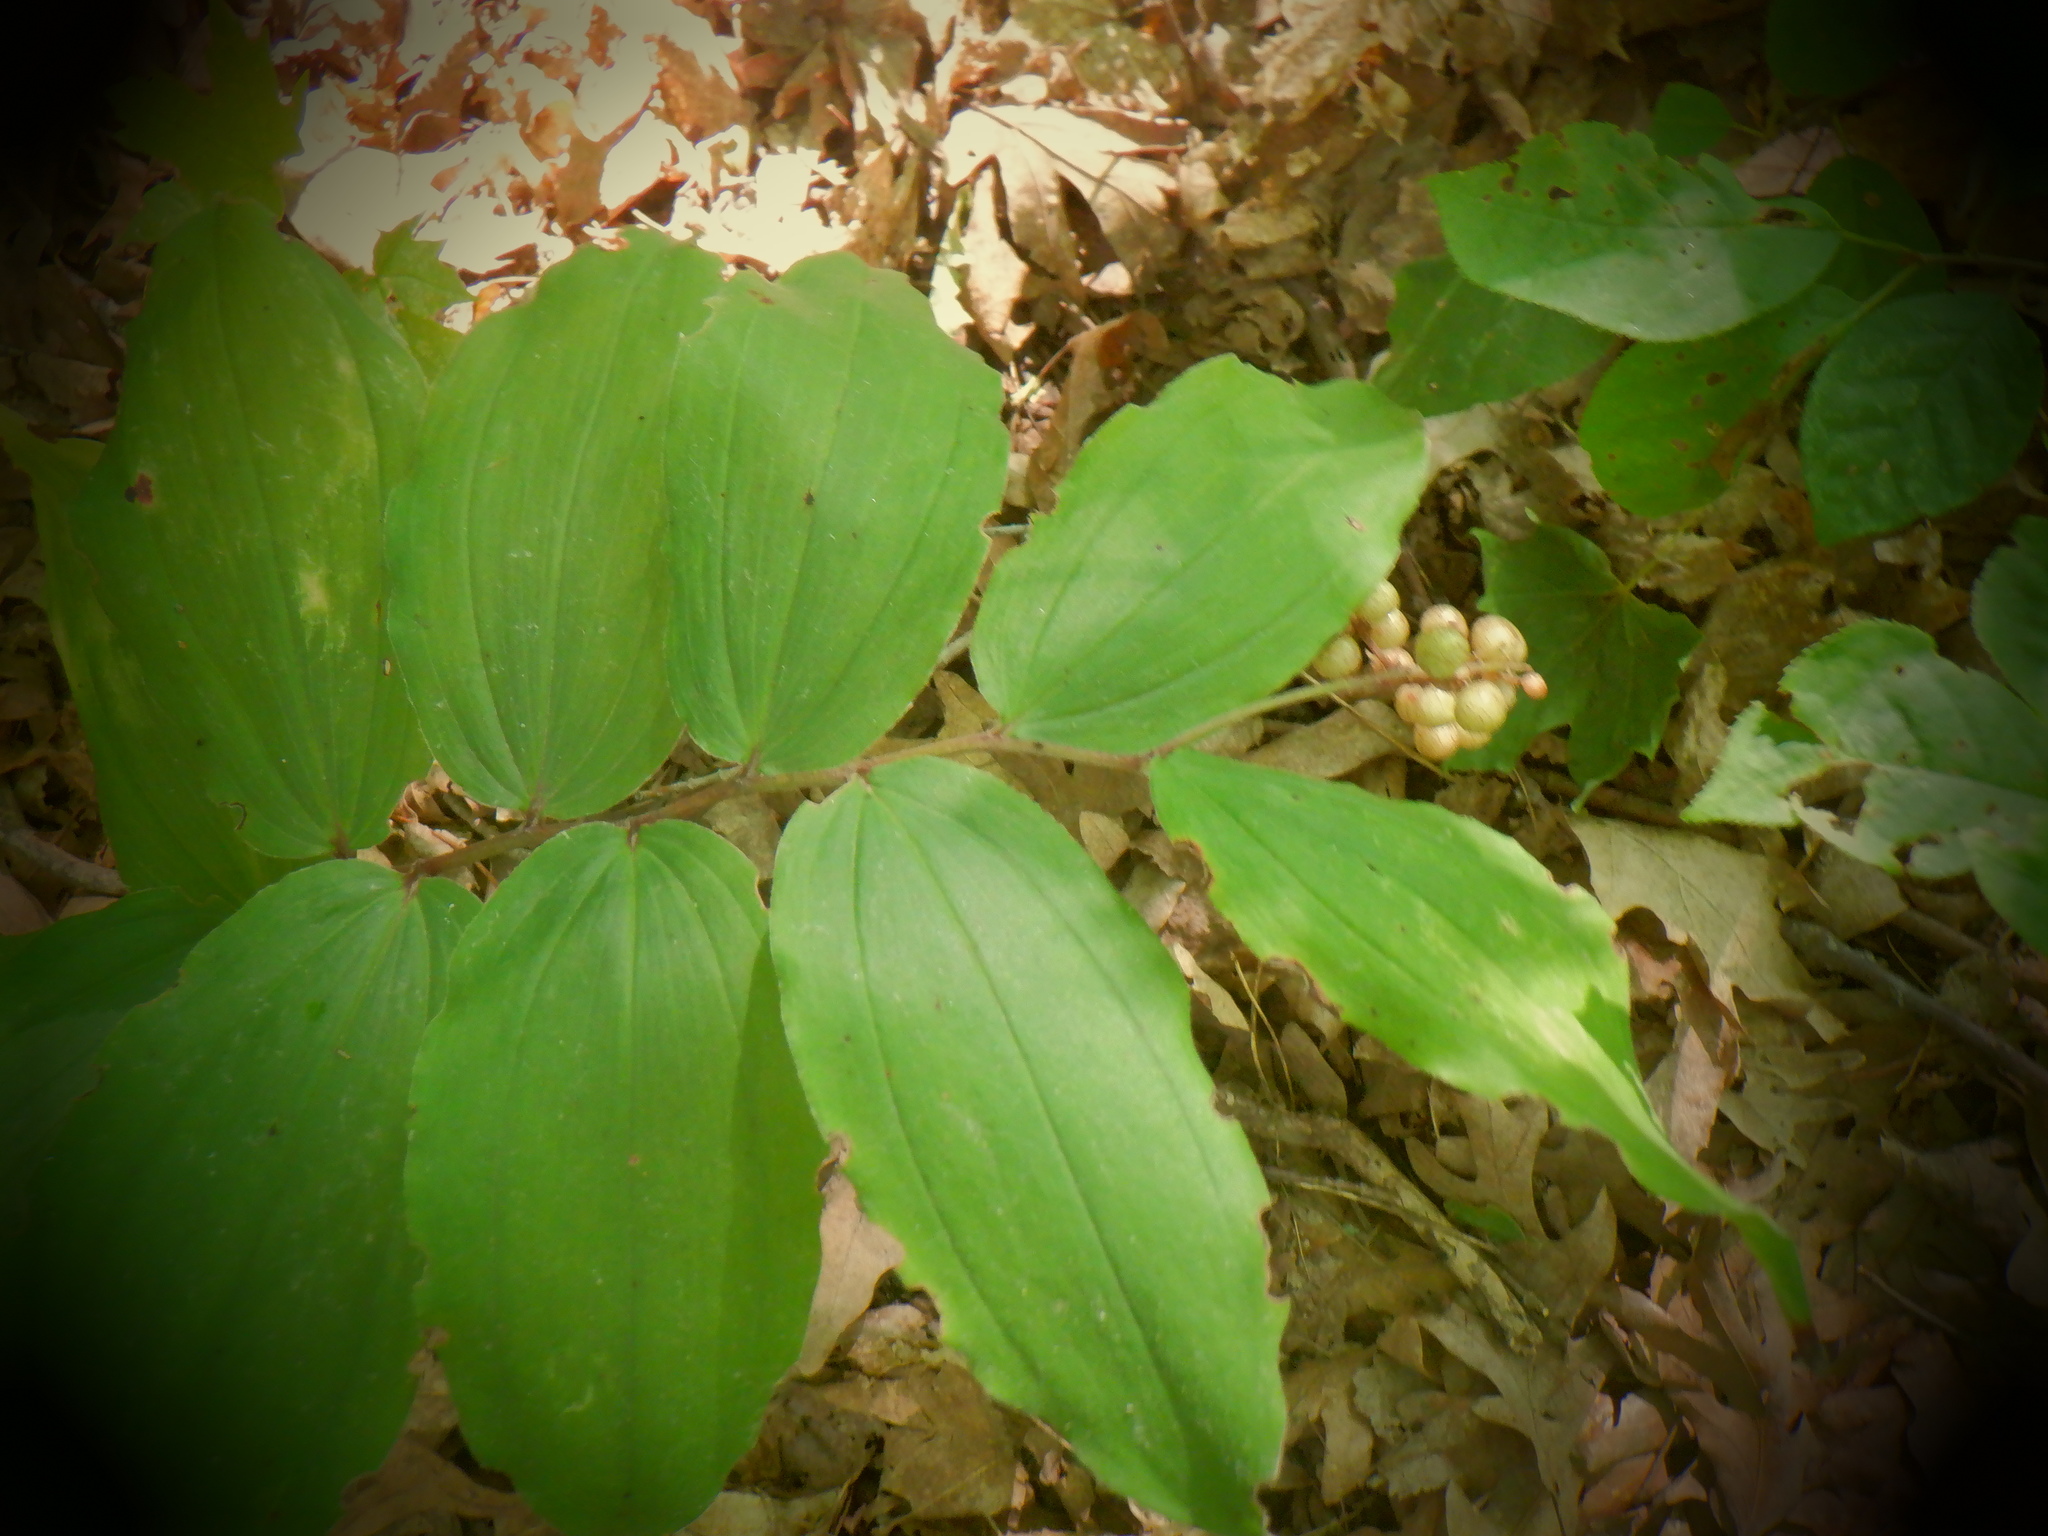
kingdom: Plantae
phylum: Tracheophyta
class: Liliopsida
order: Asparagales
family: Asparagaceae
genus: Maianthemum
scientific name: Maianthemum racemosum
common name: False spikenard
